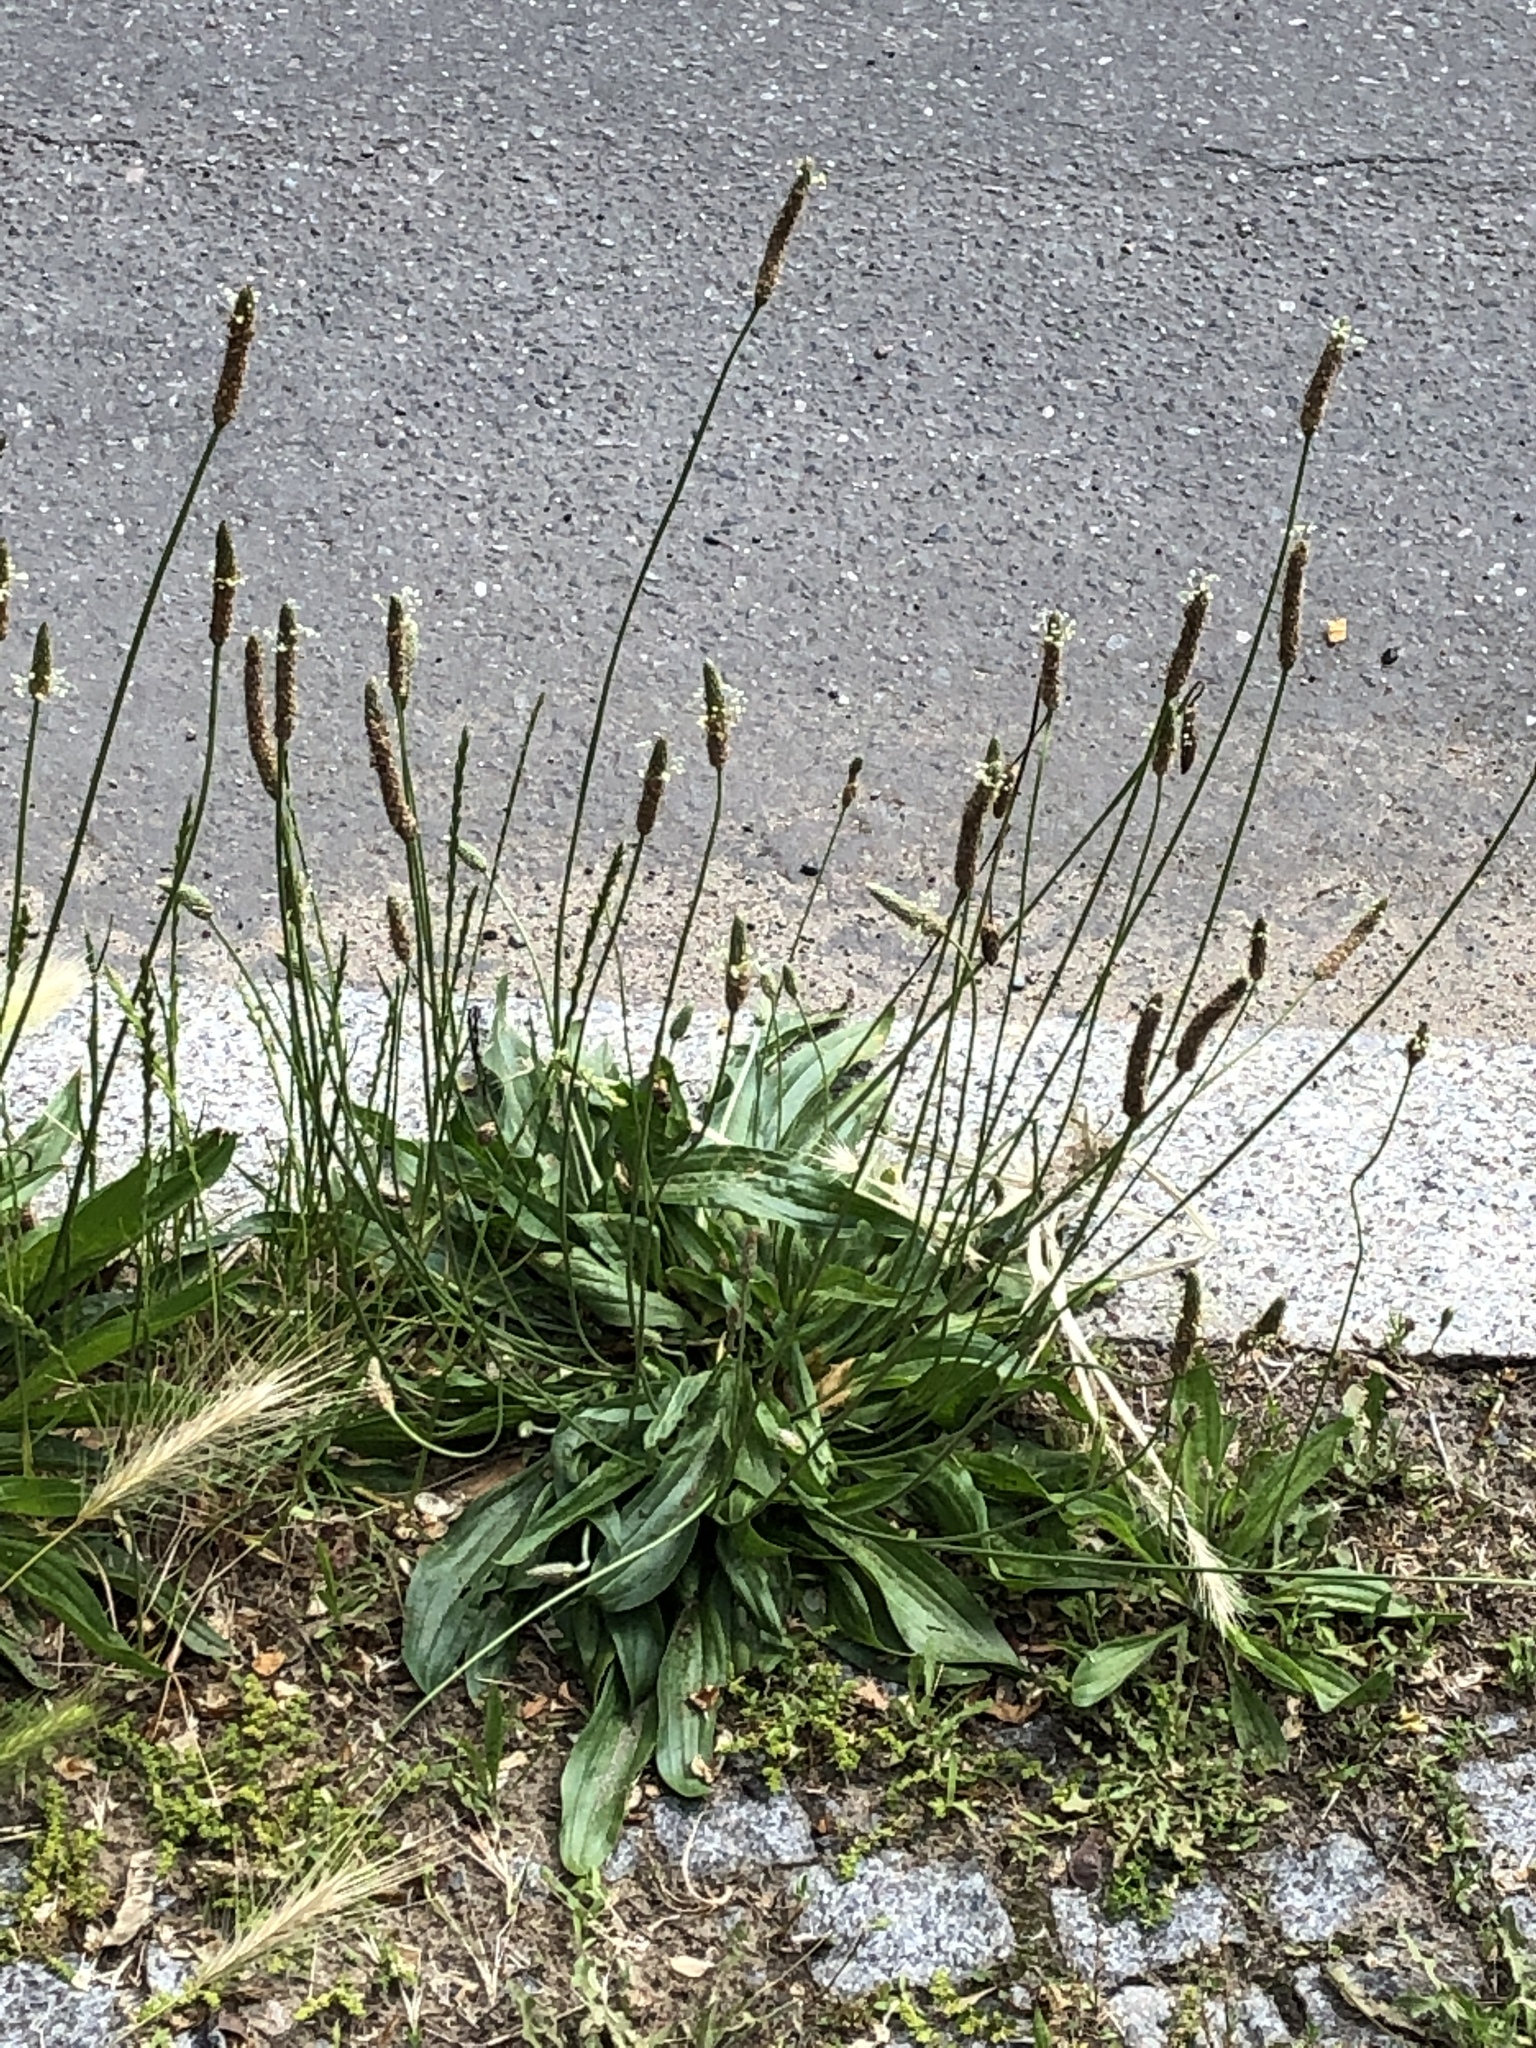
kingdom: Plantae
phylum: Tracheophyta
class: Magnoliopsida
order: Lamiales
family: Plantaginaceae
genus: Plantago
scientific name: Plantago lanceolata
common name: Ribwort plantain
